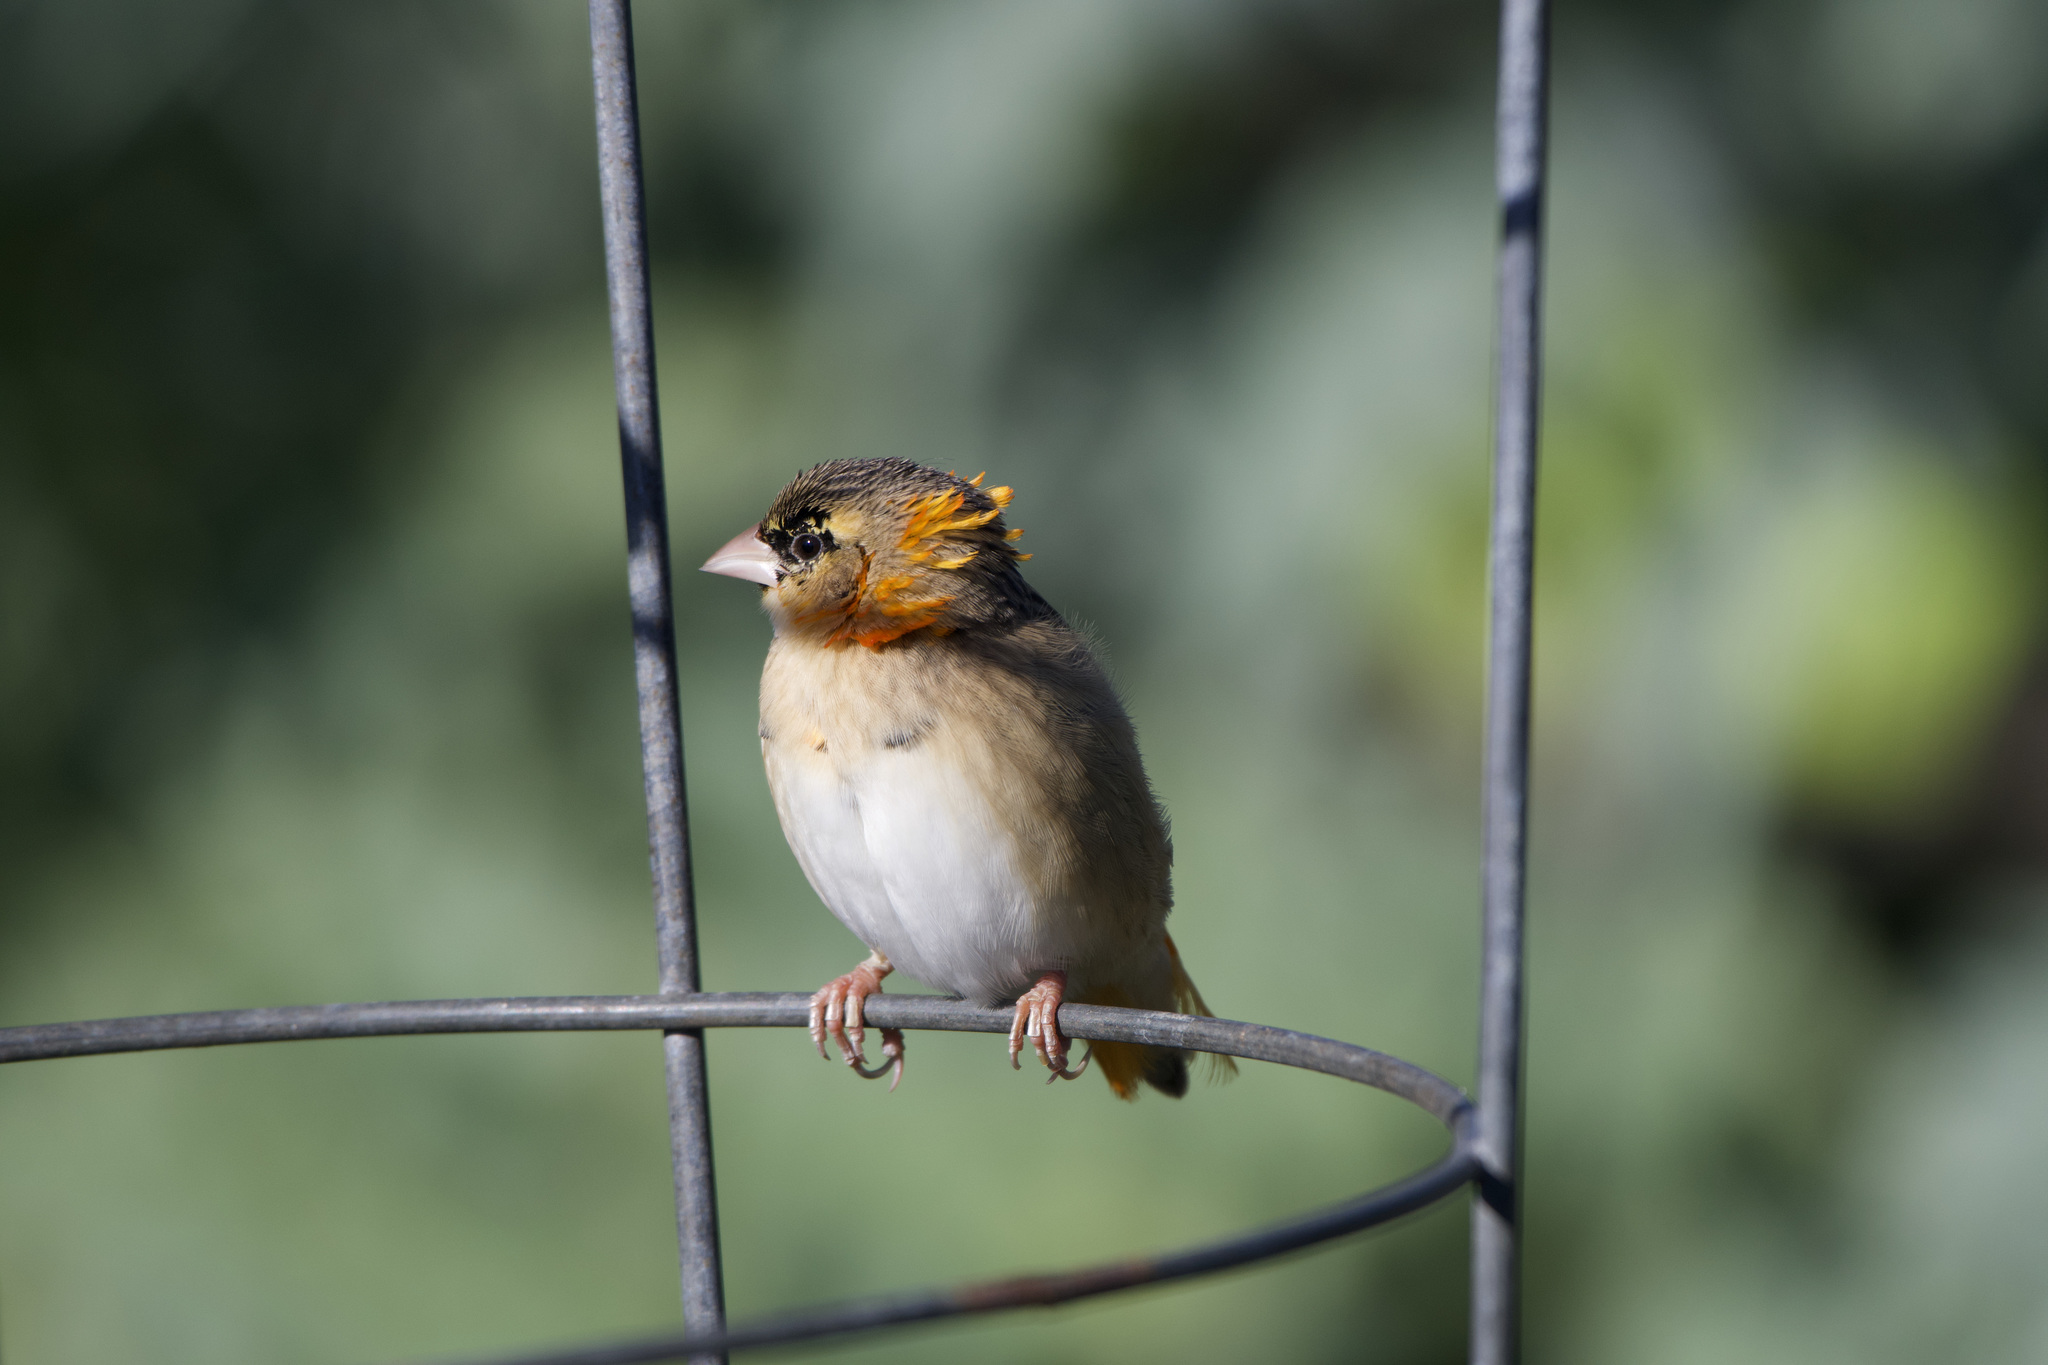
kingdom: Animalia
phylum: Chordata
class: Aves
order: Passeriformes
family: Ploceidae
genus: Euplectes
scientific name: Euplectes franciscanus
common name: Northern red bishop
